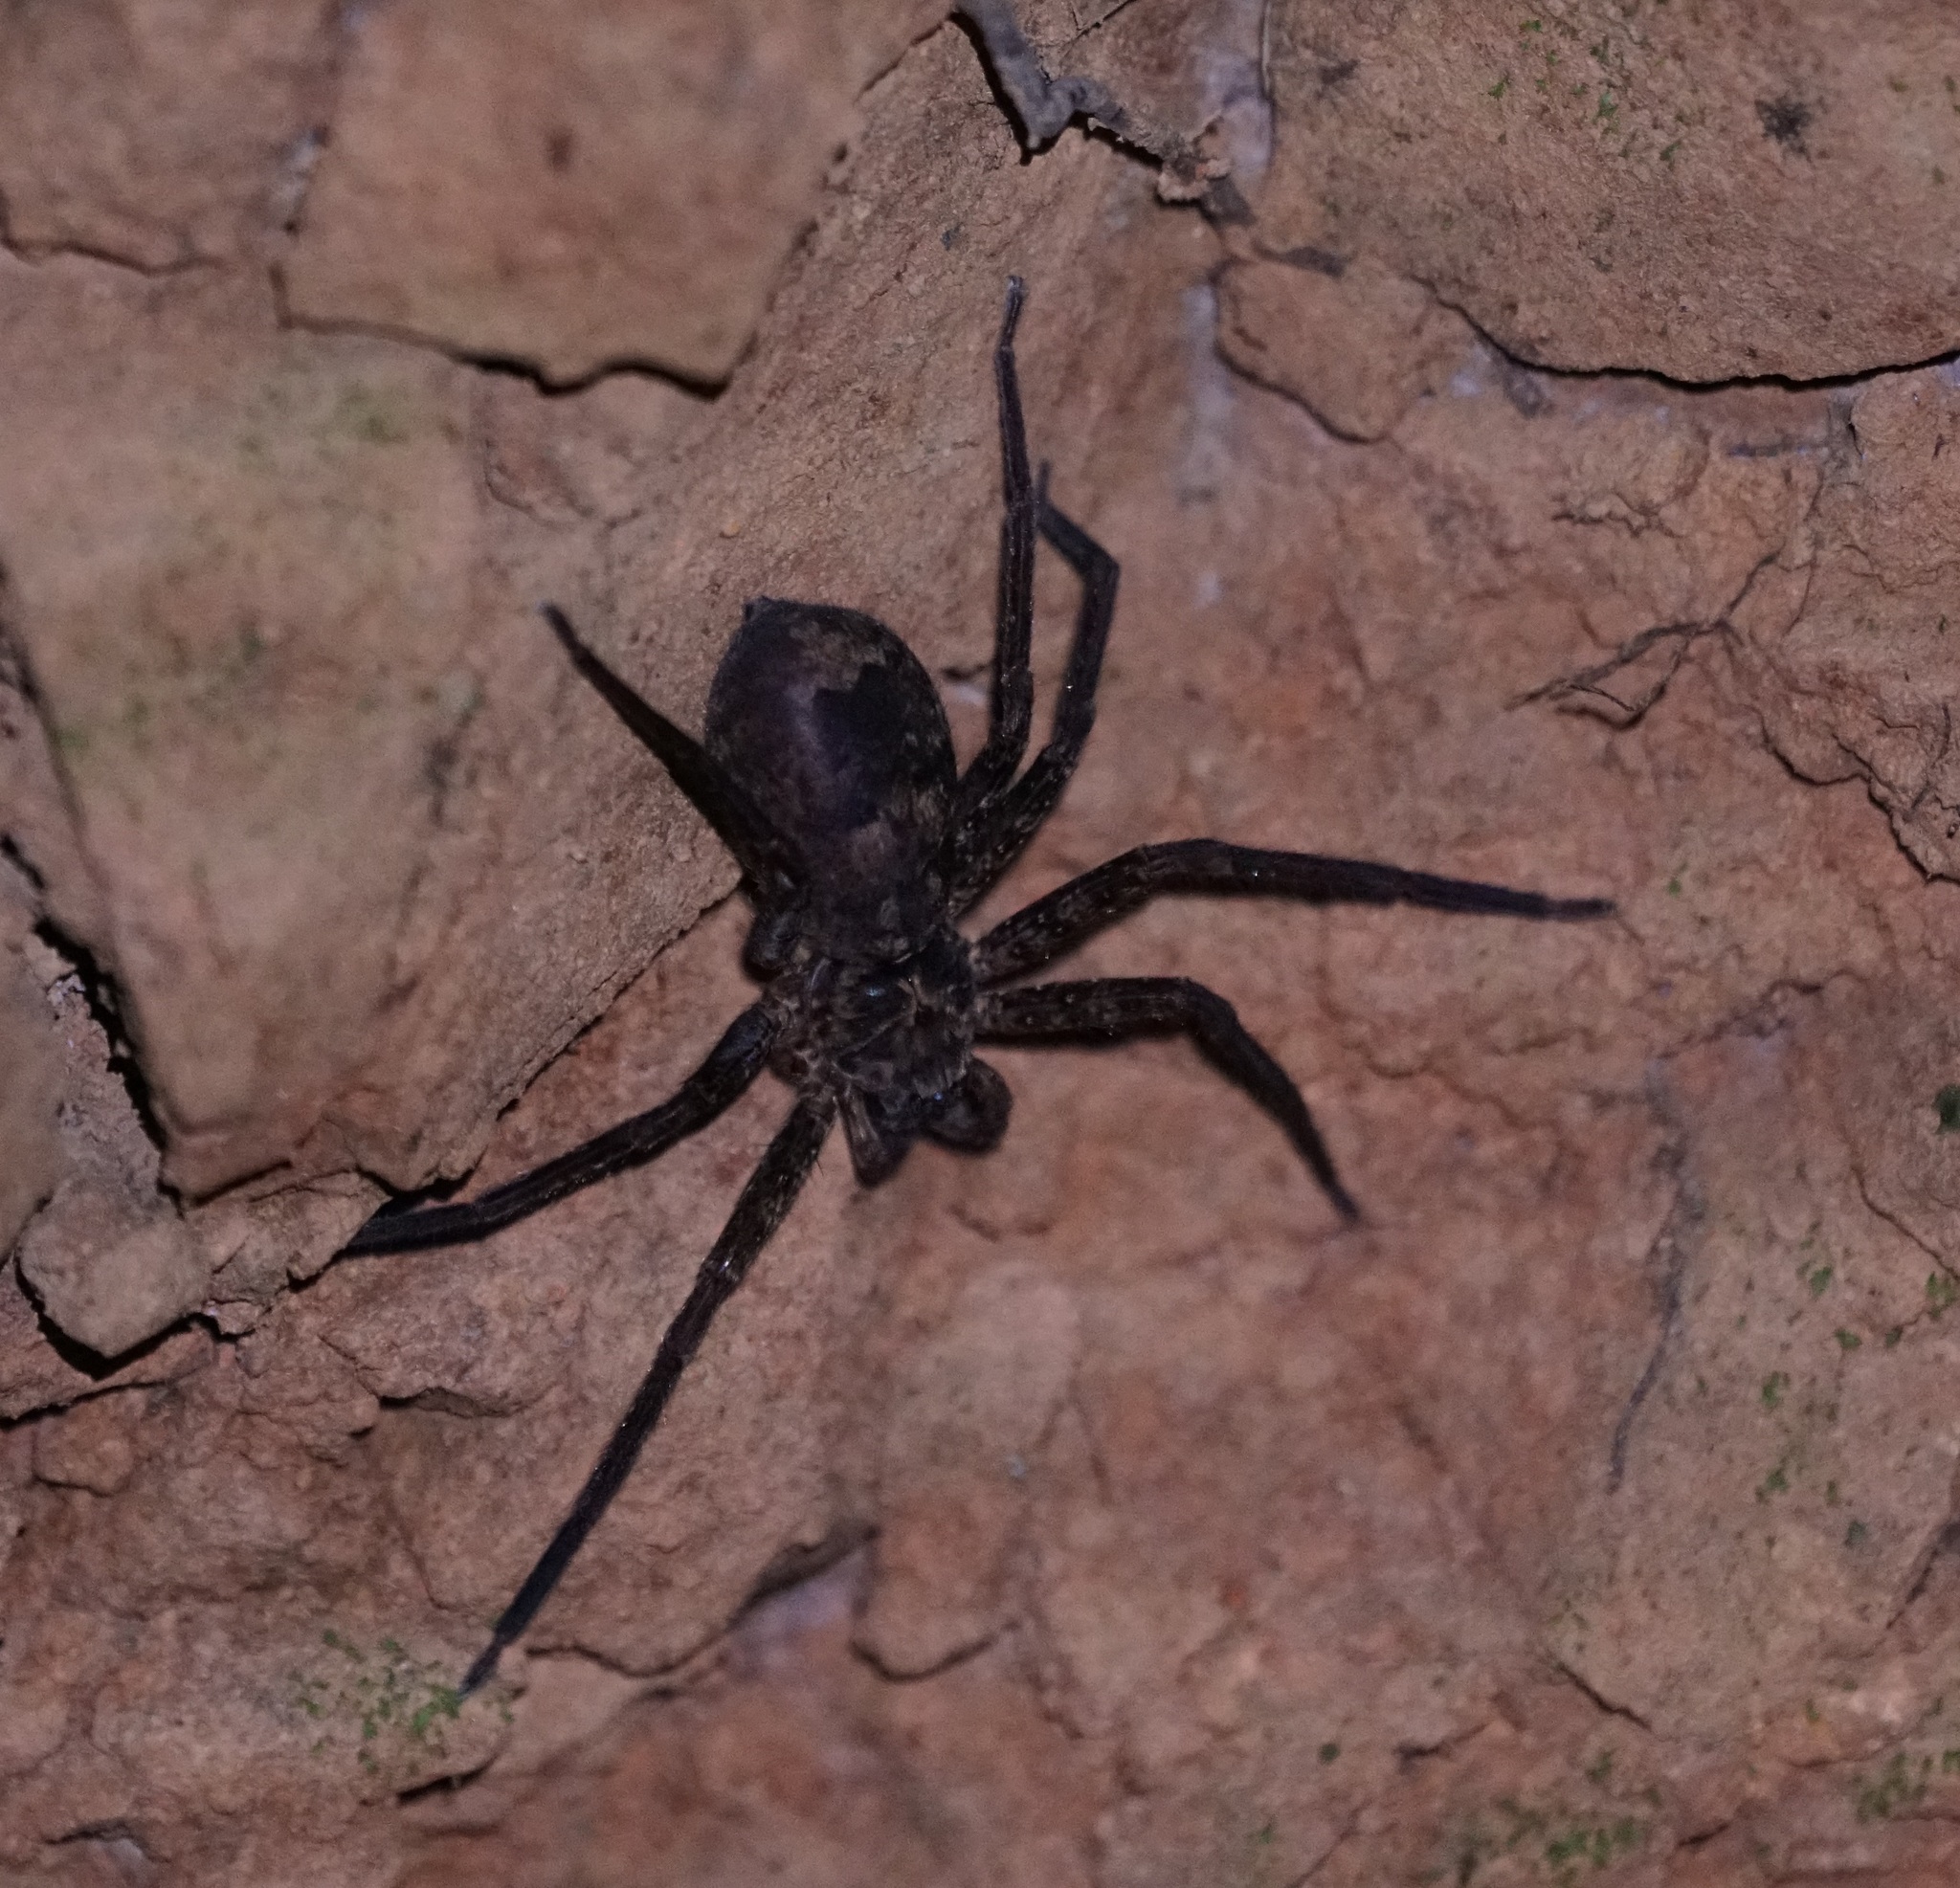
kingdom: Animalia
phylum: Arthropoda
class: Arachnida
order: Araneae
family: Sparassidae
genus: Heteropoda
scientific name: Heteropoda longipes
